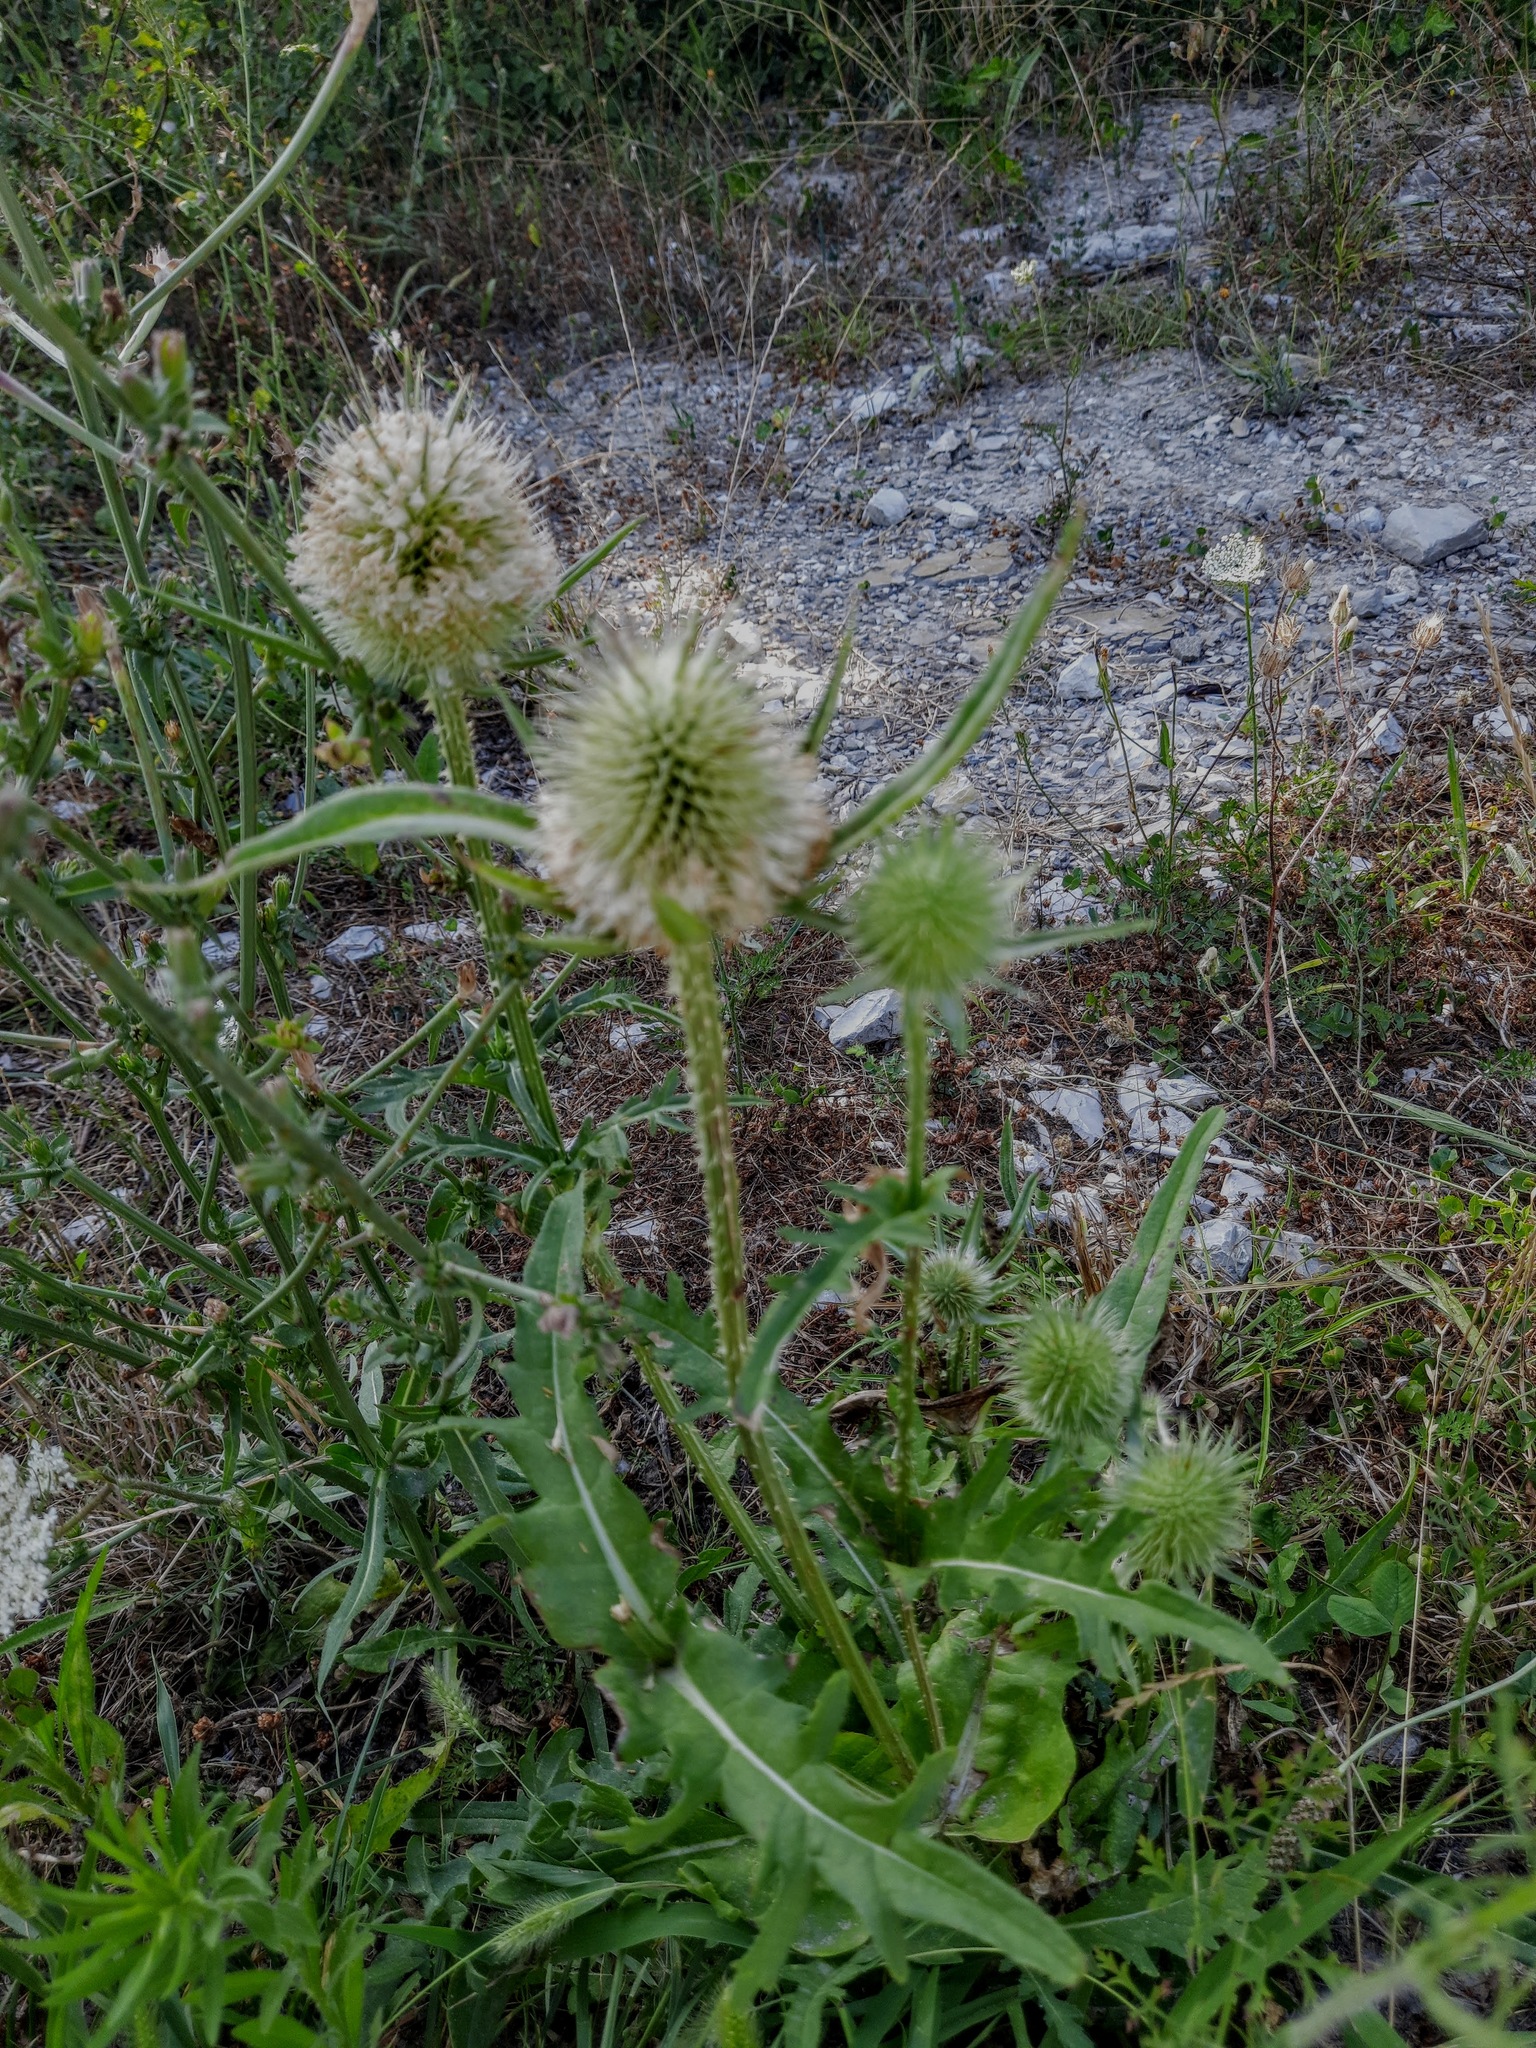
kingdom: Plantae
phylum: Tracheophyta
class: Magnoliopsida
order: Dipsacales
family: Caprifoliaceae
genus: Dipsacus
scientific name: Dipsacus laciniatus
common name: Cut-leaved teasel
